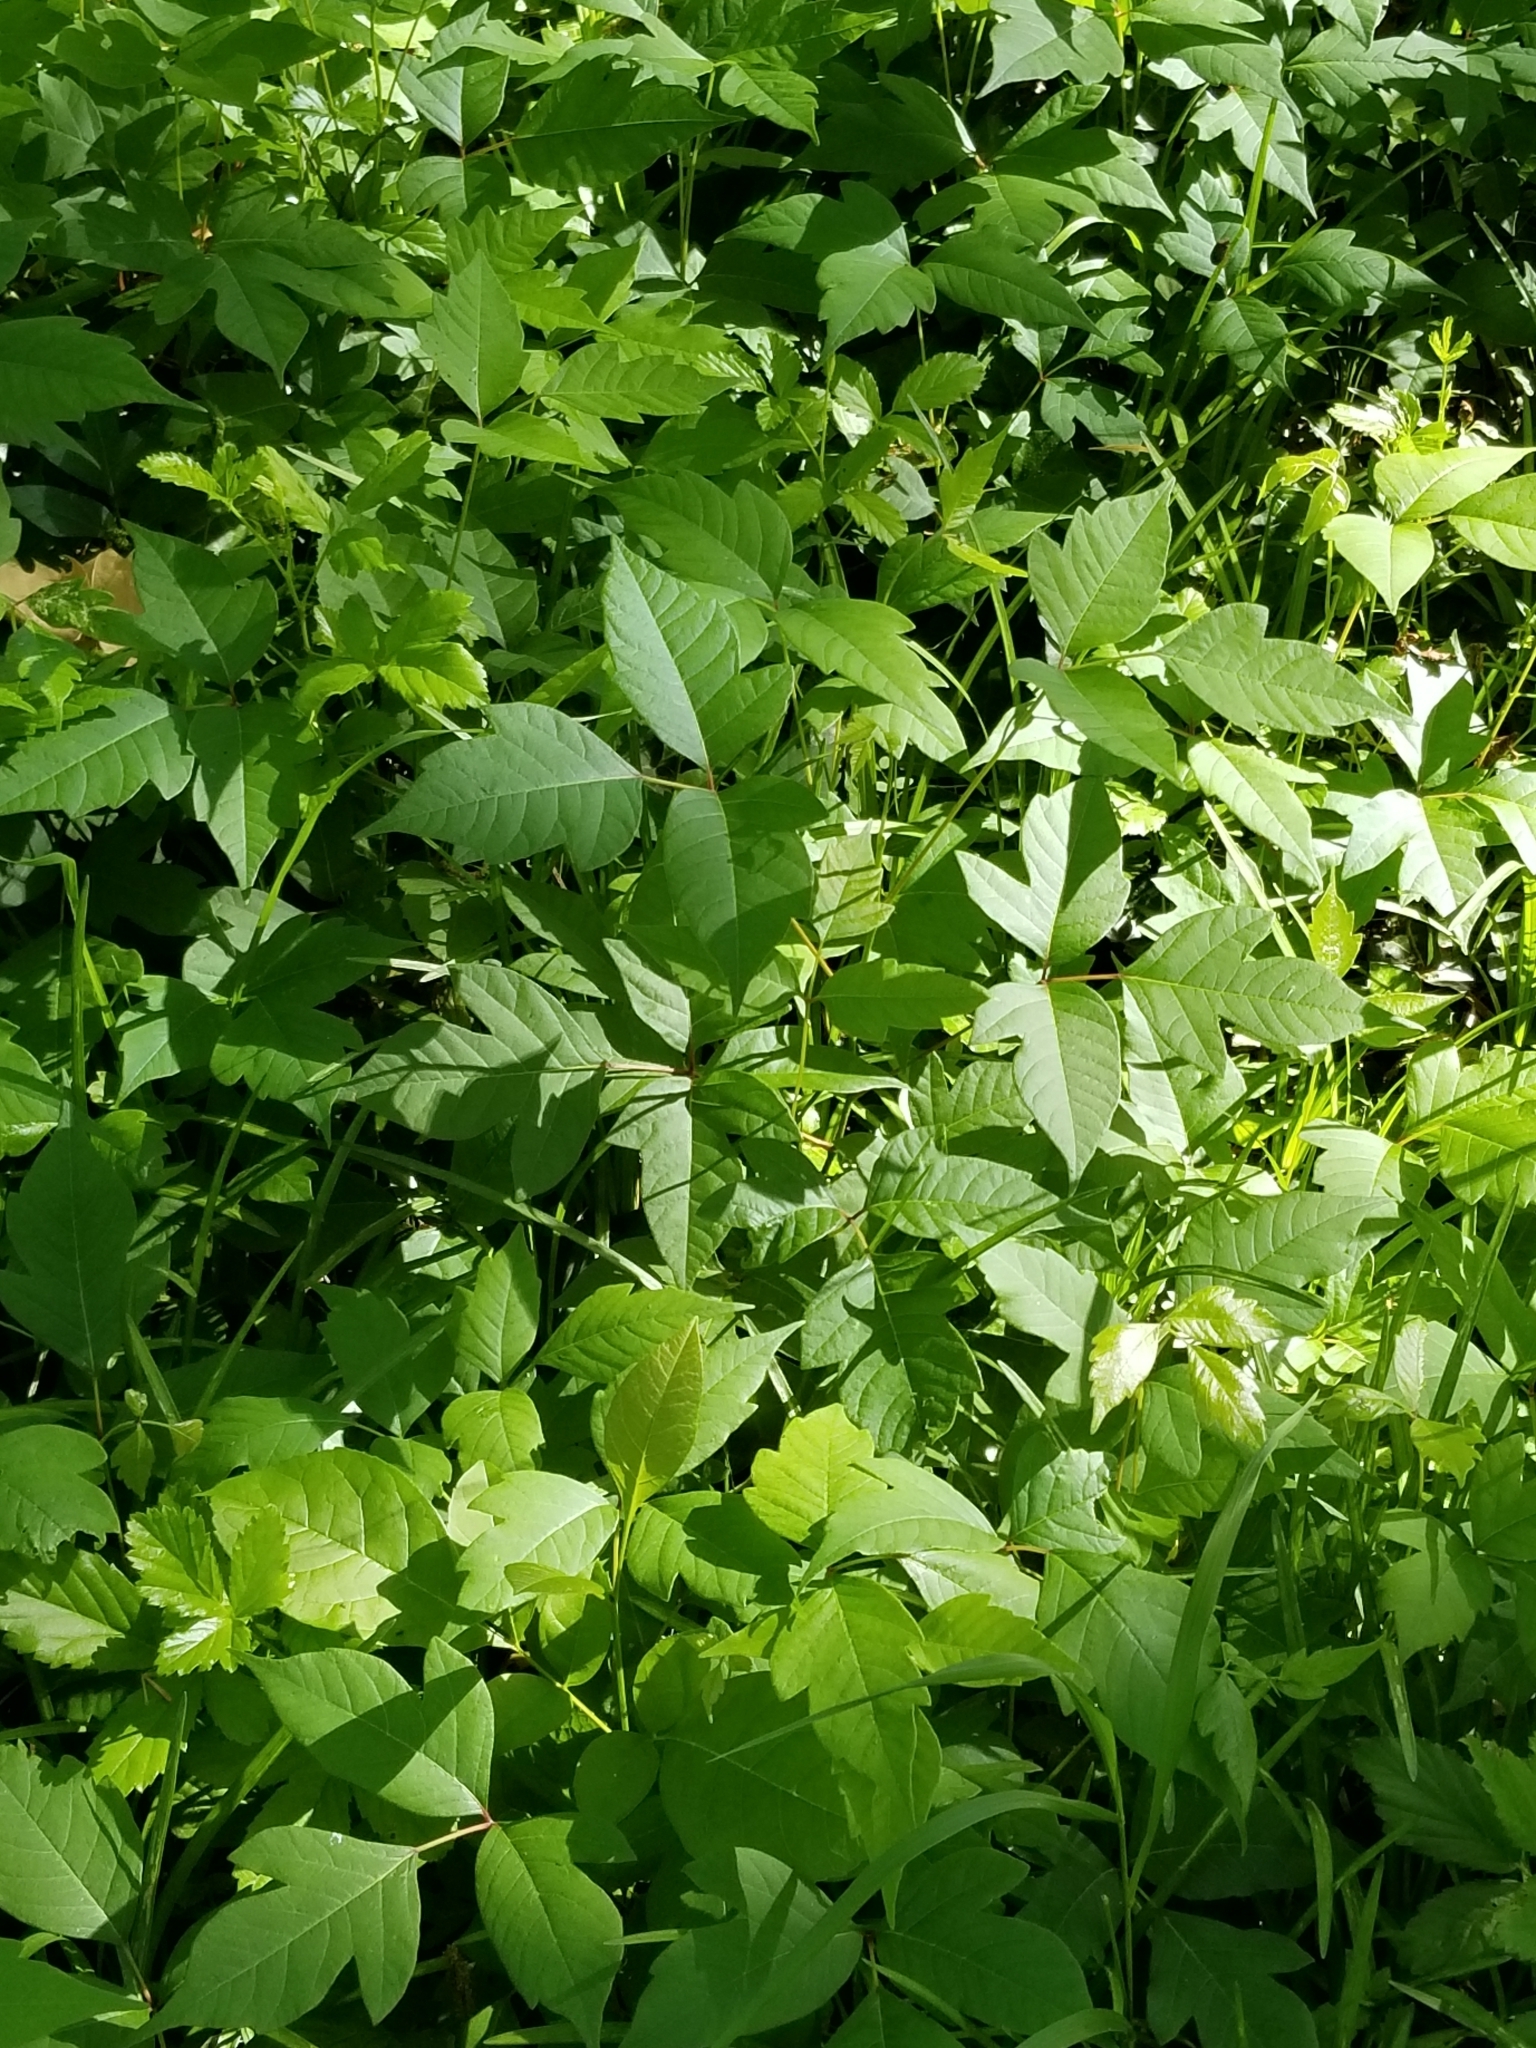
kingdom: Plantae
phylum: Tracheophyta
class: Magnoliopsida
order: Sapindales
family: Anacardiaceae
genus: Toxicodendron
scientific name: Toxicodendron radicans
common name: Poison ivy
